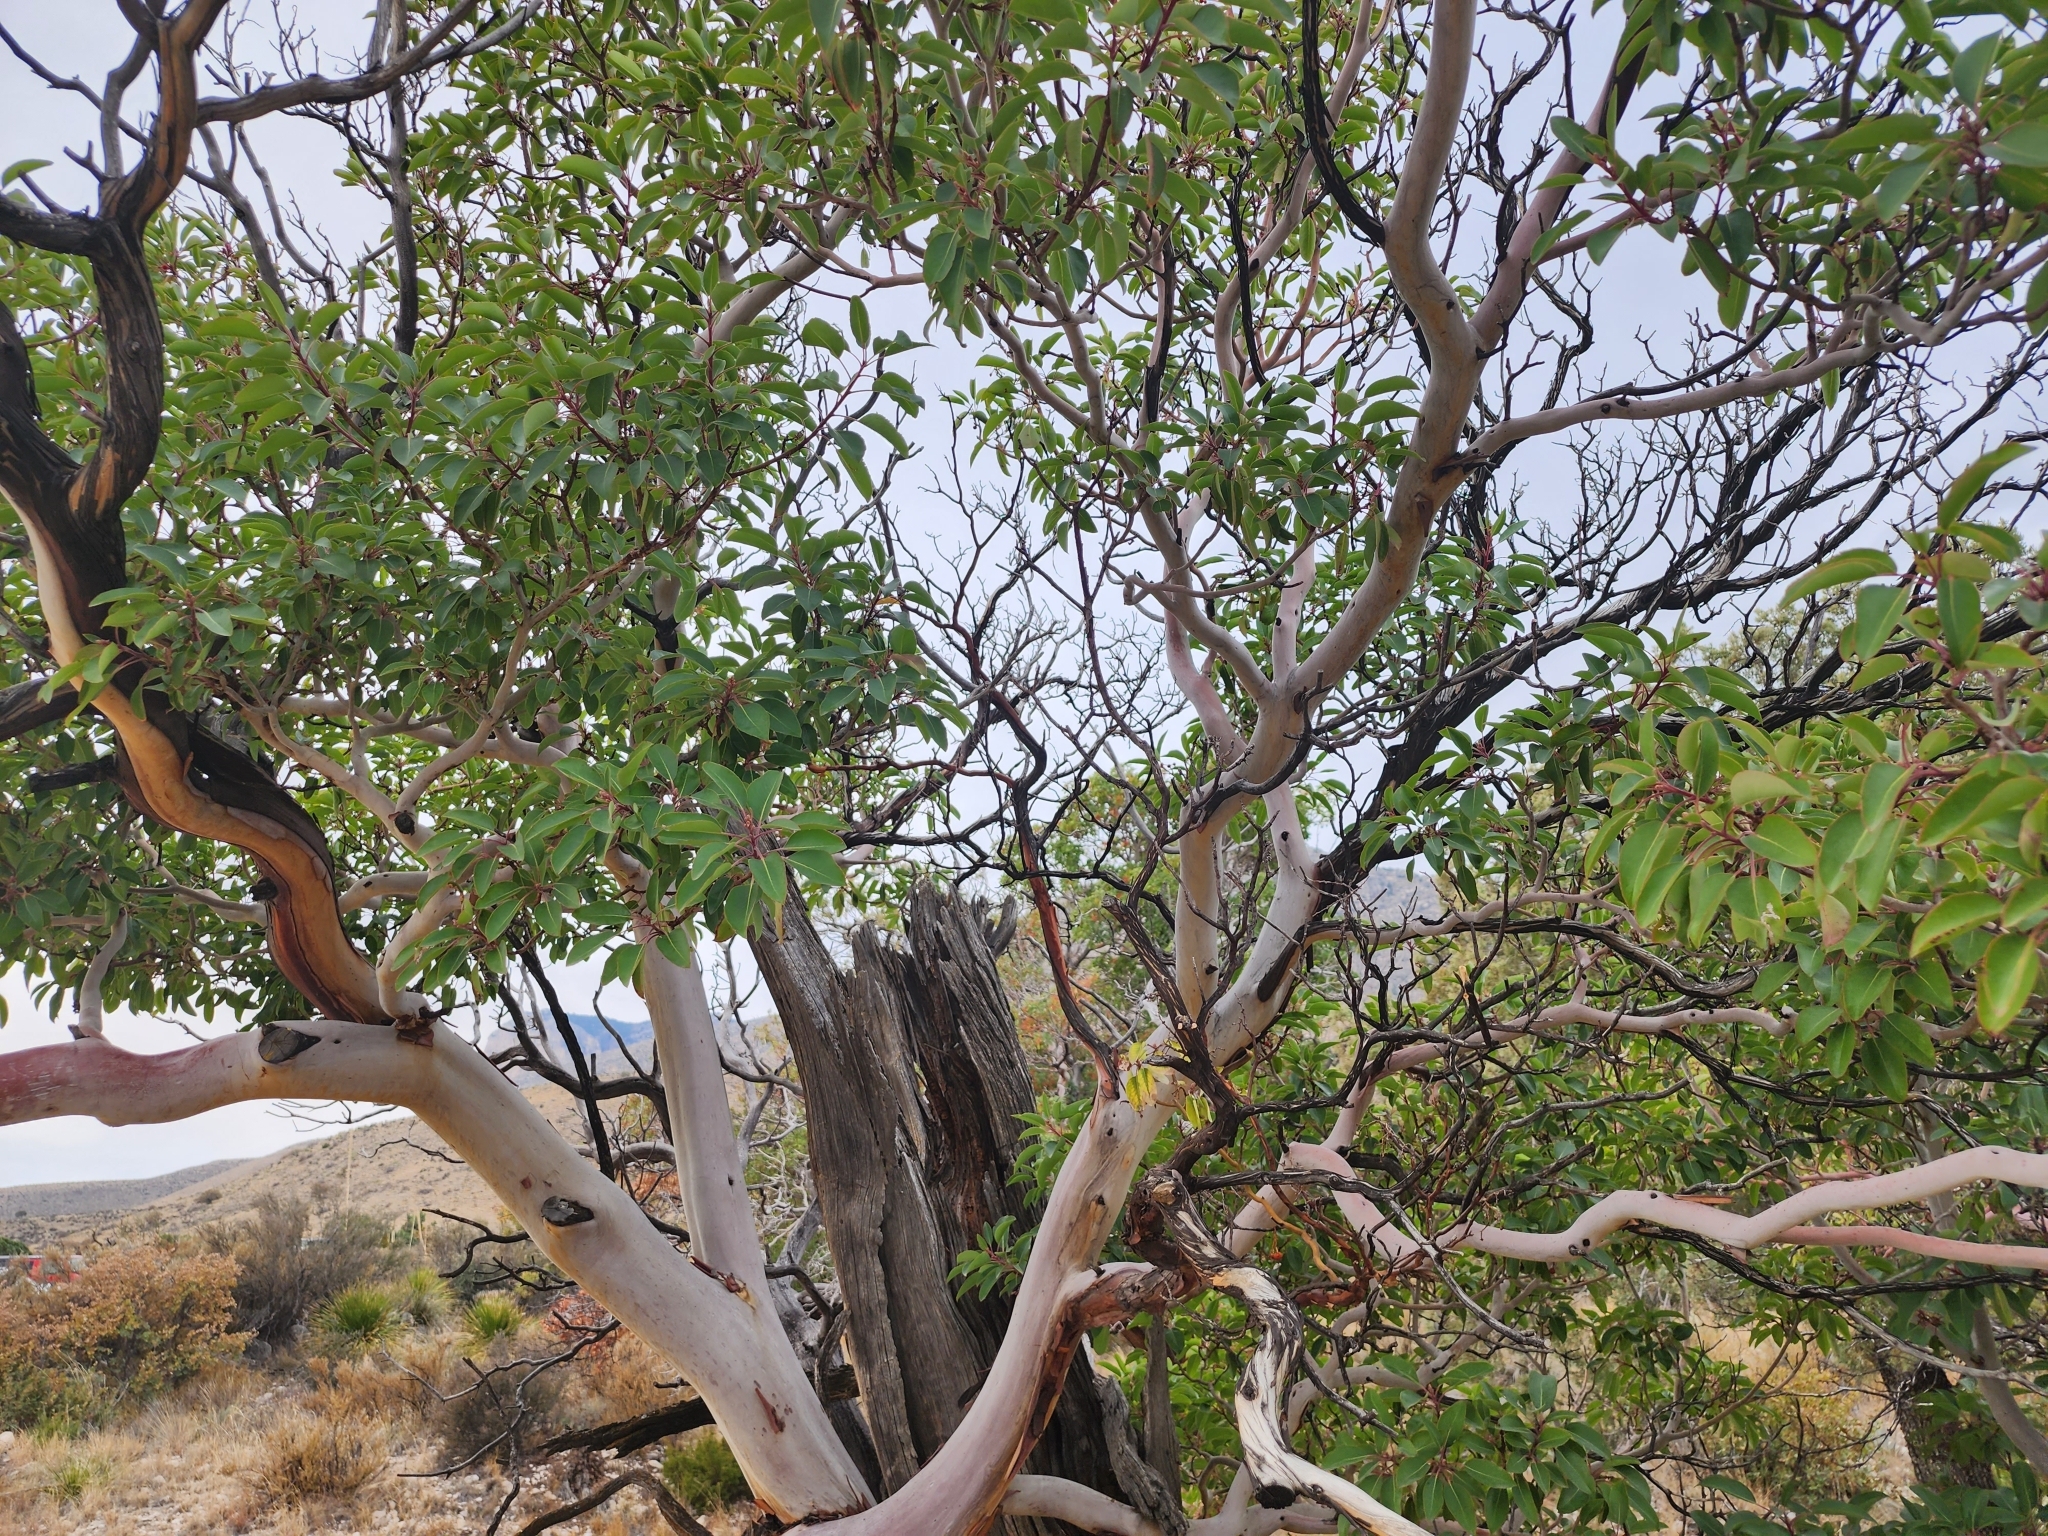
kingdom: Plantae
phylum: Tracheophyta
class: Magnoliopsida
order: Ericales
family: Ericaceae
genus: Arbutus
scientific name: Arbutus xalapensis
